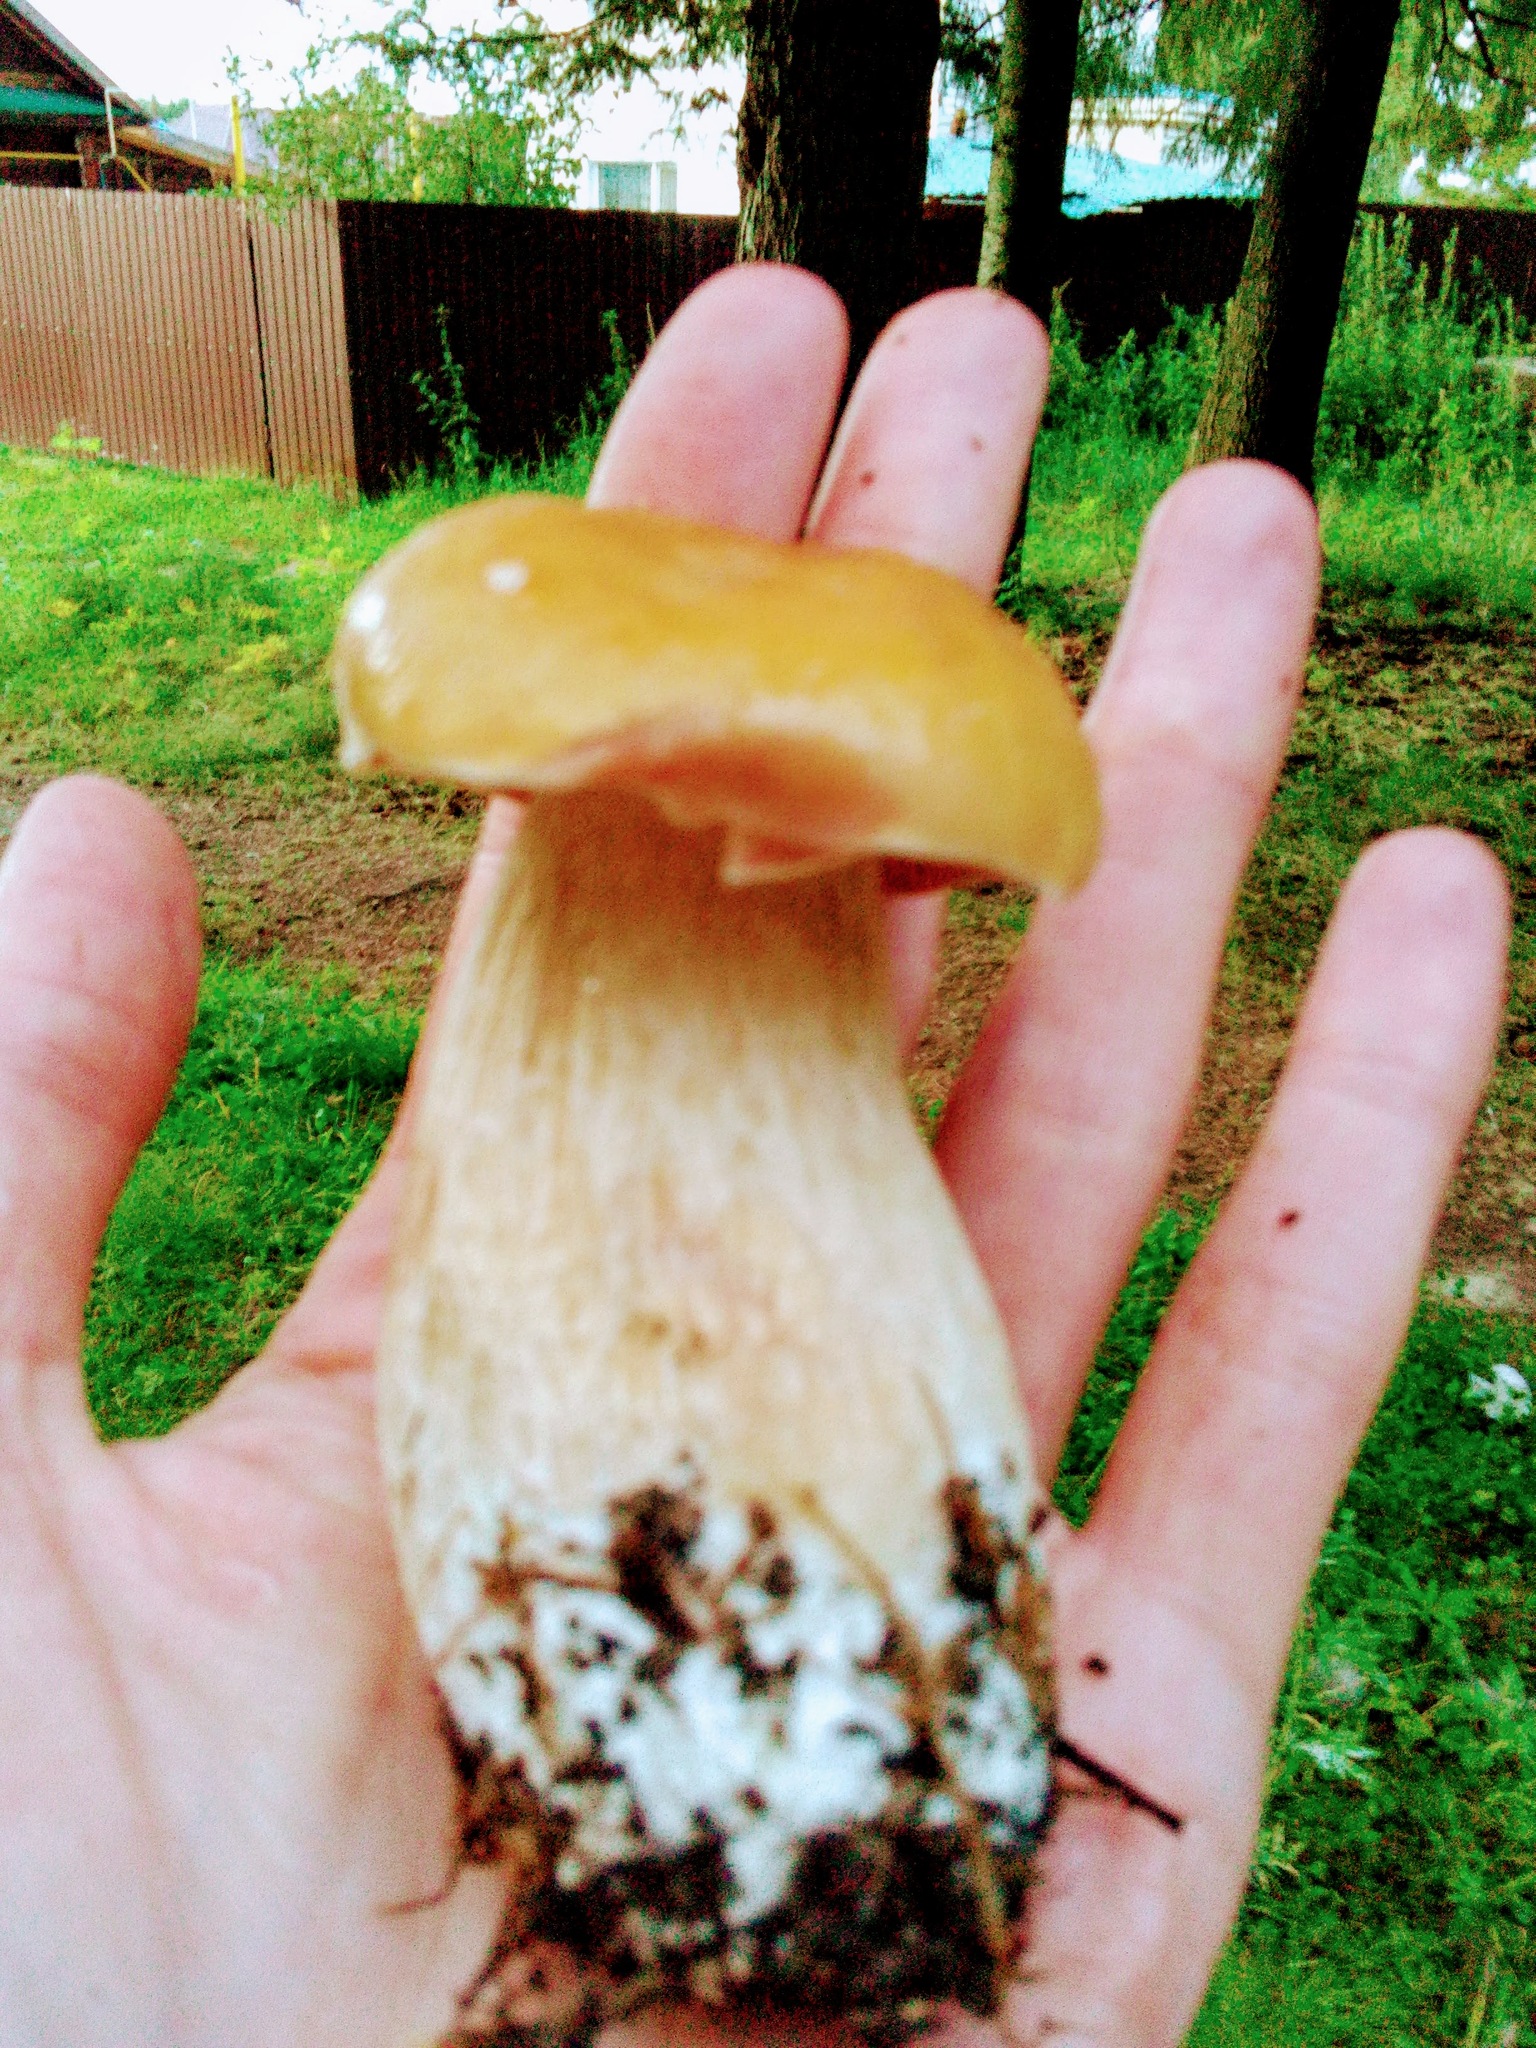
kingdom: Fungi
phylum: Basidiomycota
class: Agaricomycetes
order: Boletales
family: Boletaceae
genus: Boletus
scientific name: Boletus edulis
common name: Cep
